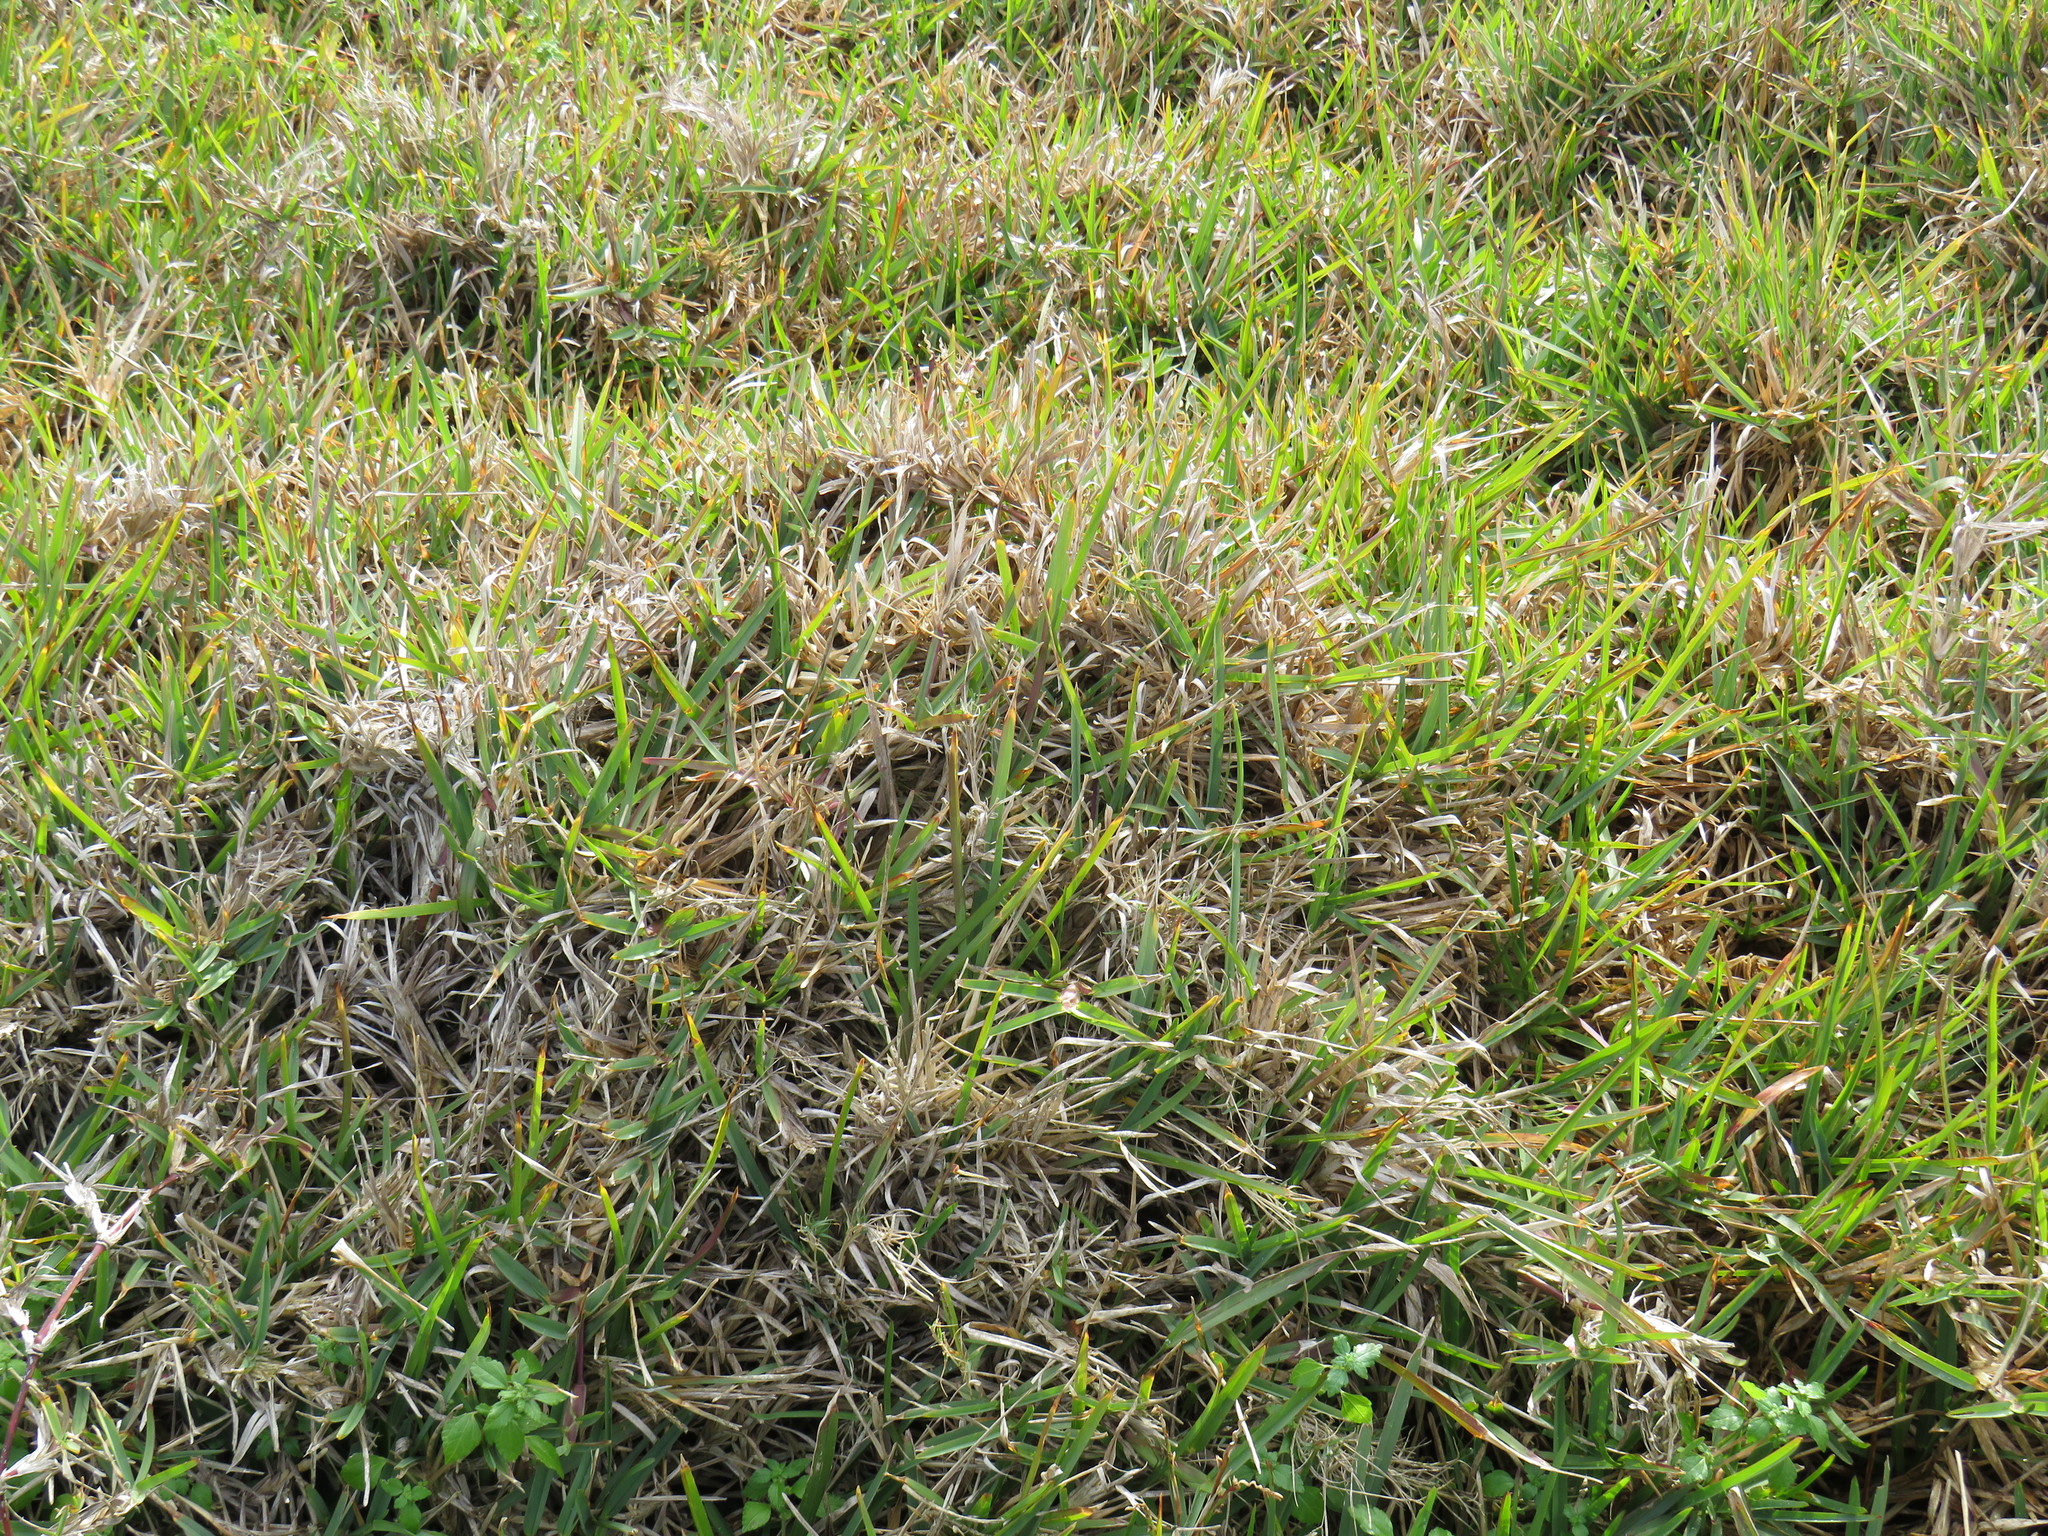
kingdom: Plantae
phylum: Tracheophyta
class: Liliopsida
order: Poales
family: Poaceae
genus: Stenotaphrum
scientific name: Stenotaphrum secundatum
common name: St. augustine grass
